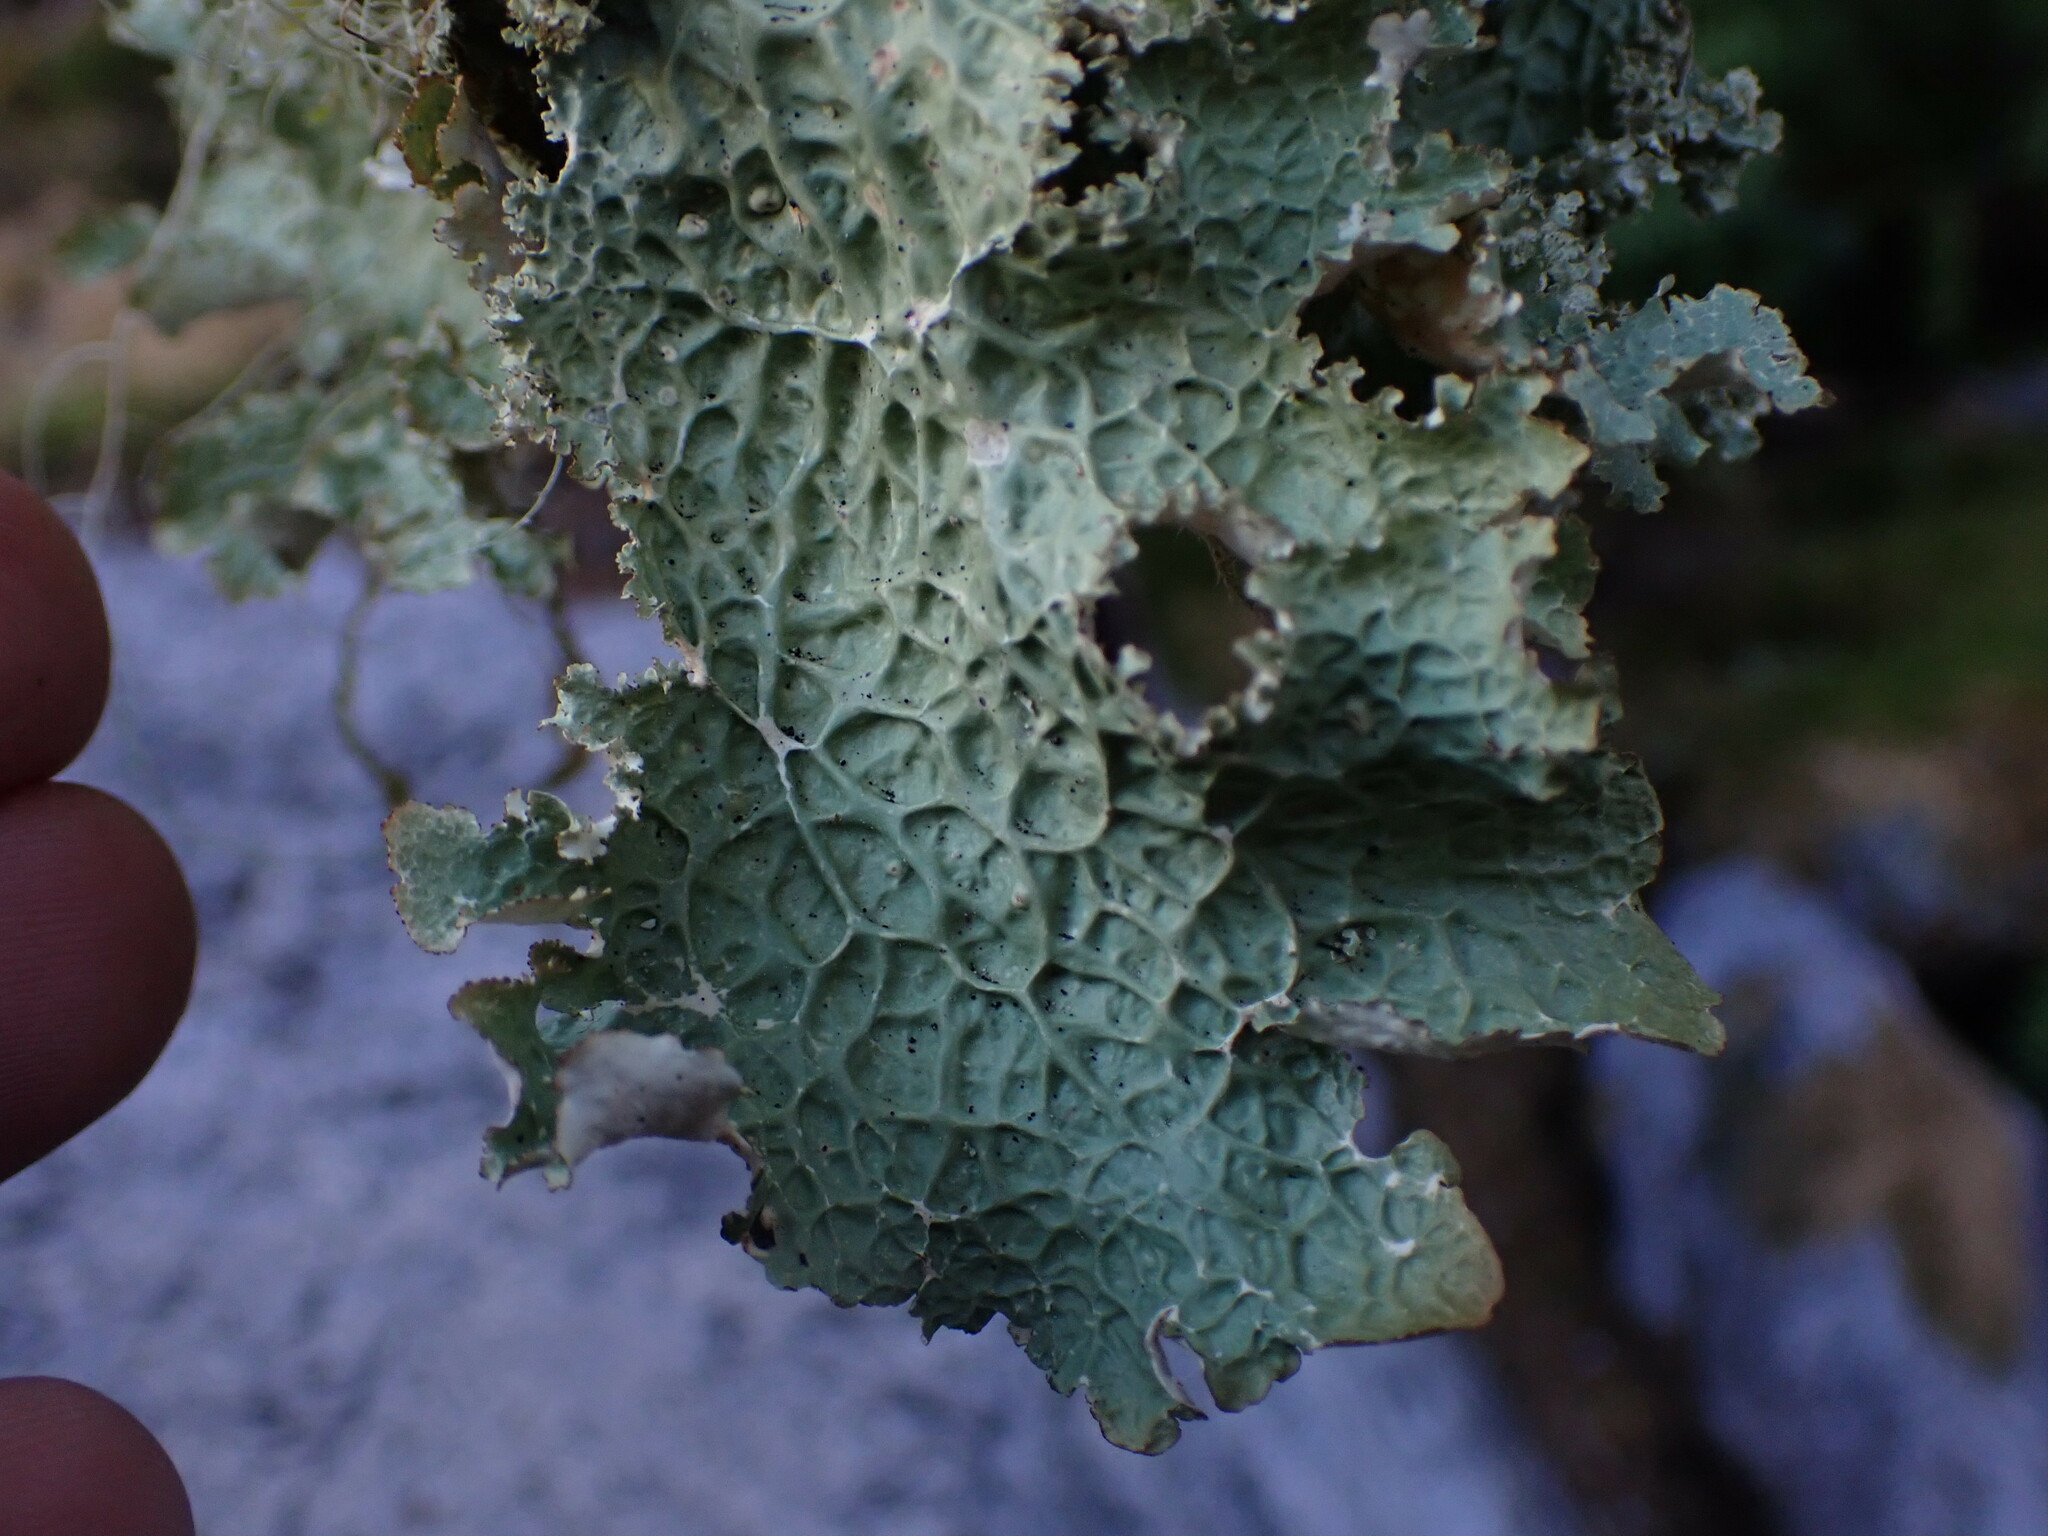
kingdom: Fungi
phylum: Ascomycota
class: Lecanoromycetes
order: Peltigerales
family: Lobariaceae
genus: Lobaria
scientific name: Lobaria oregana
